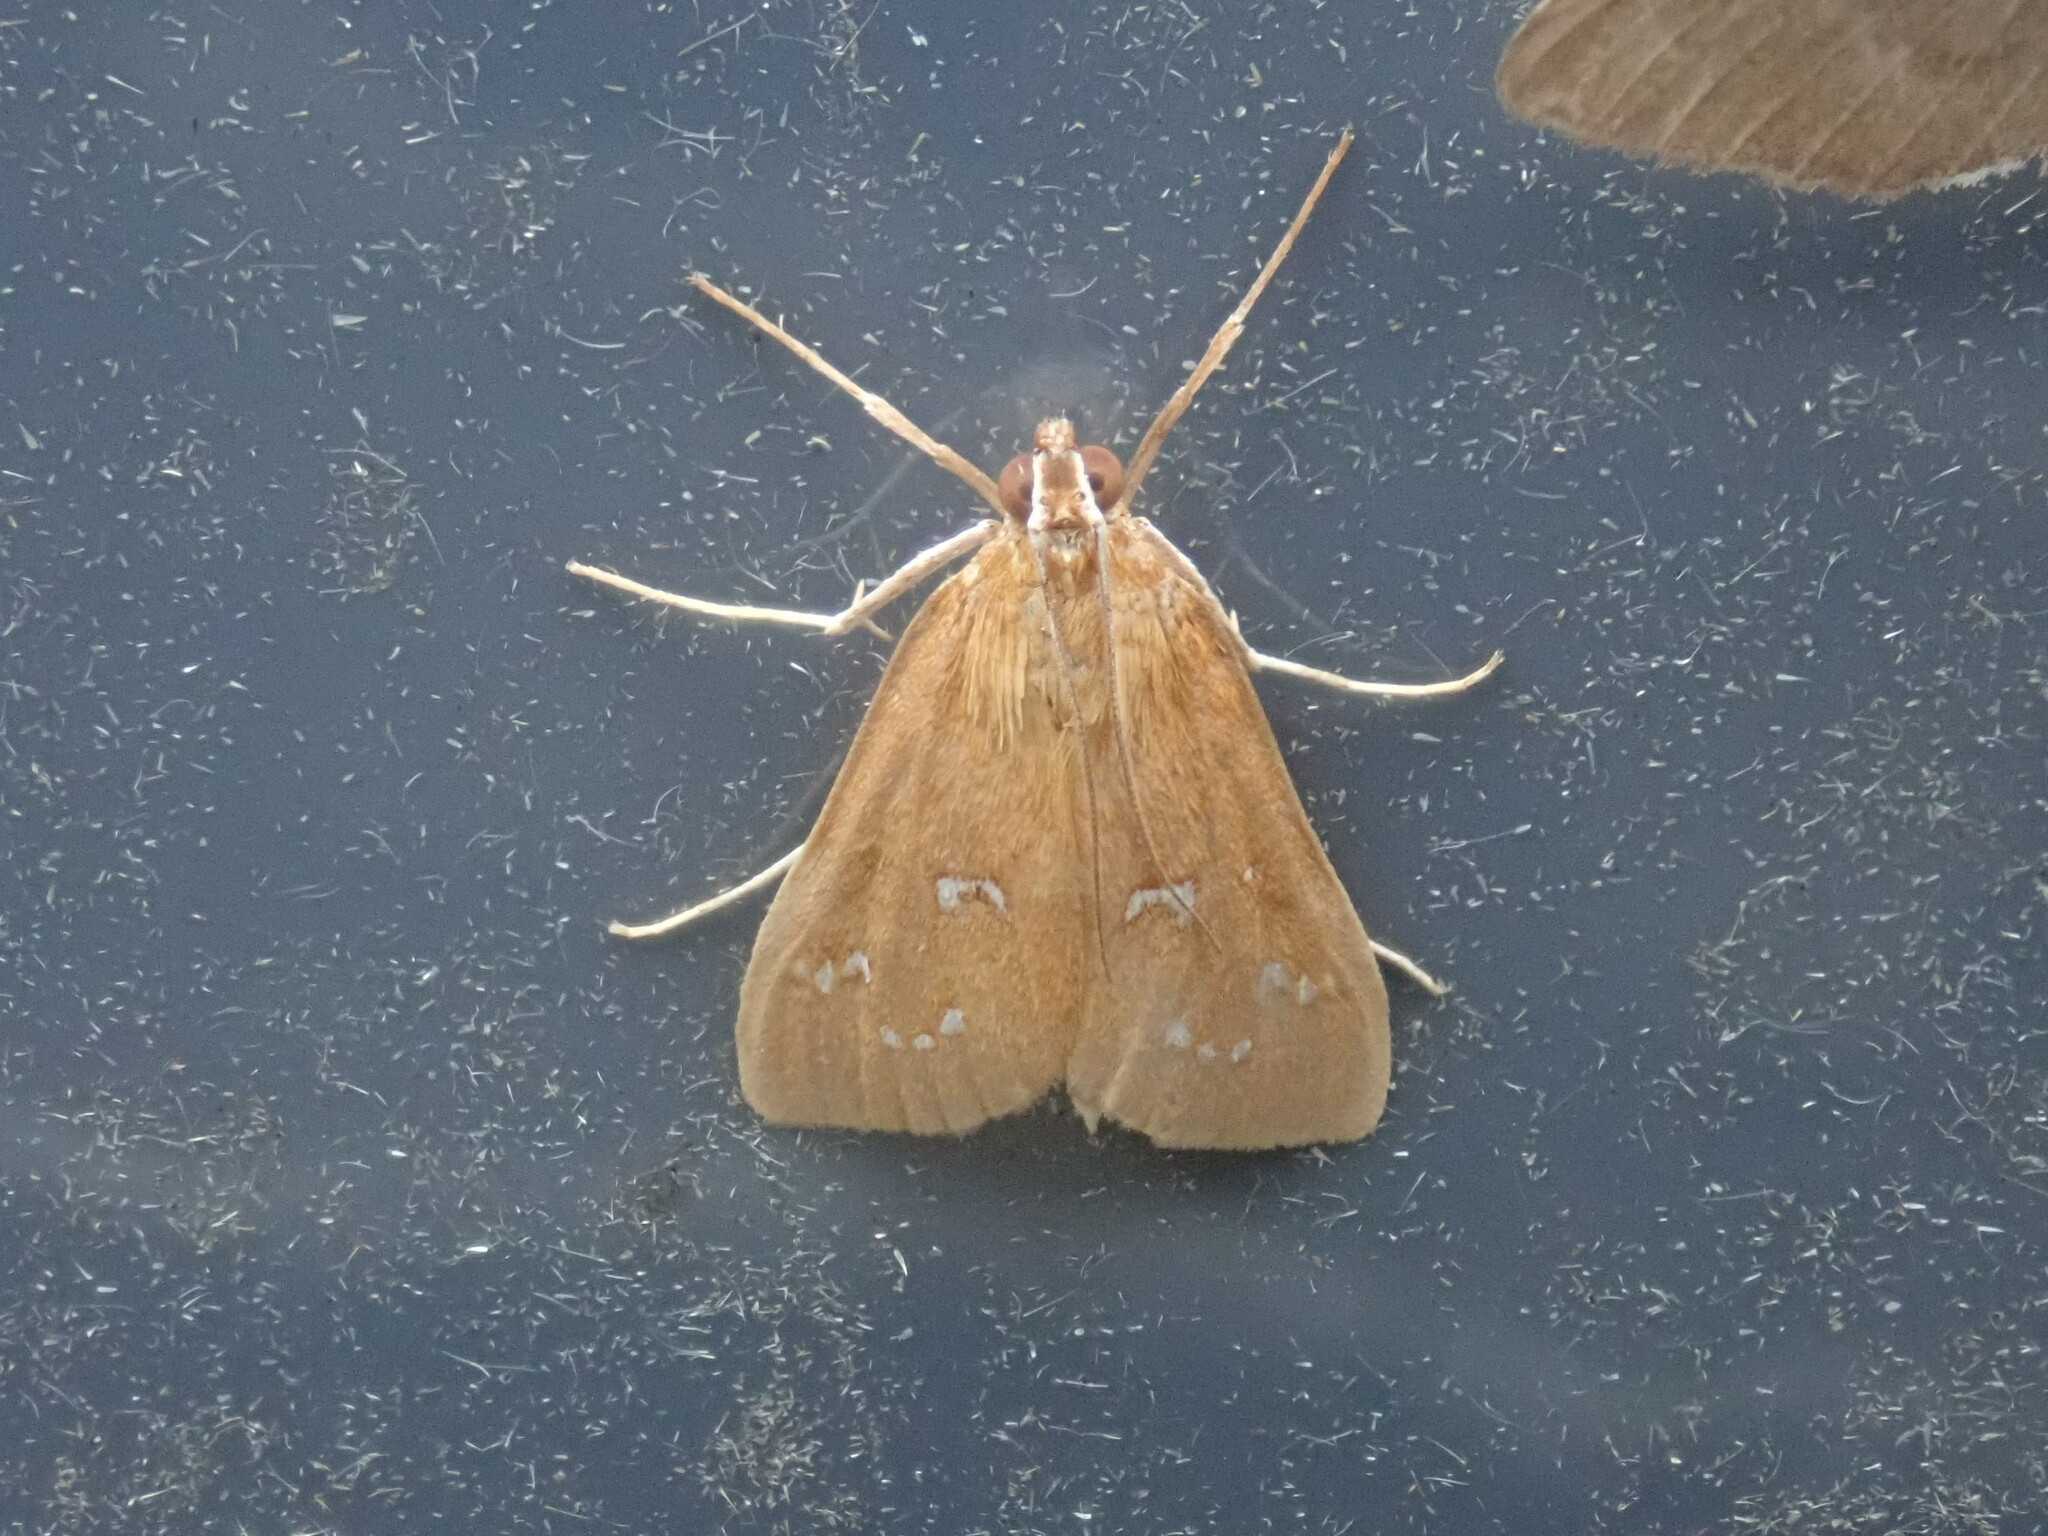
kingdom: Animalia
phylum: Arthropoda
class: Insecta
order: Lepidoptera
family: Crambidae
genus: Diastictis
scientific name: Diastictis ventralis
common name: White-spotted brown
